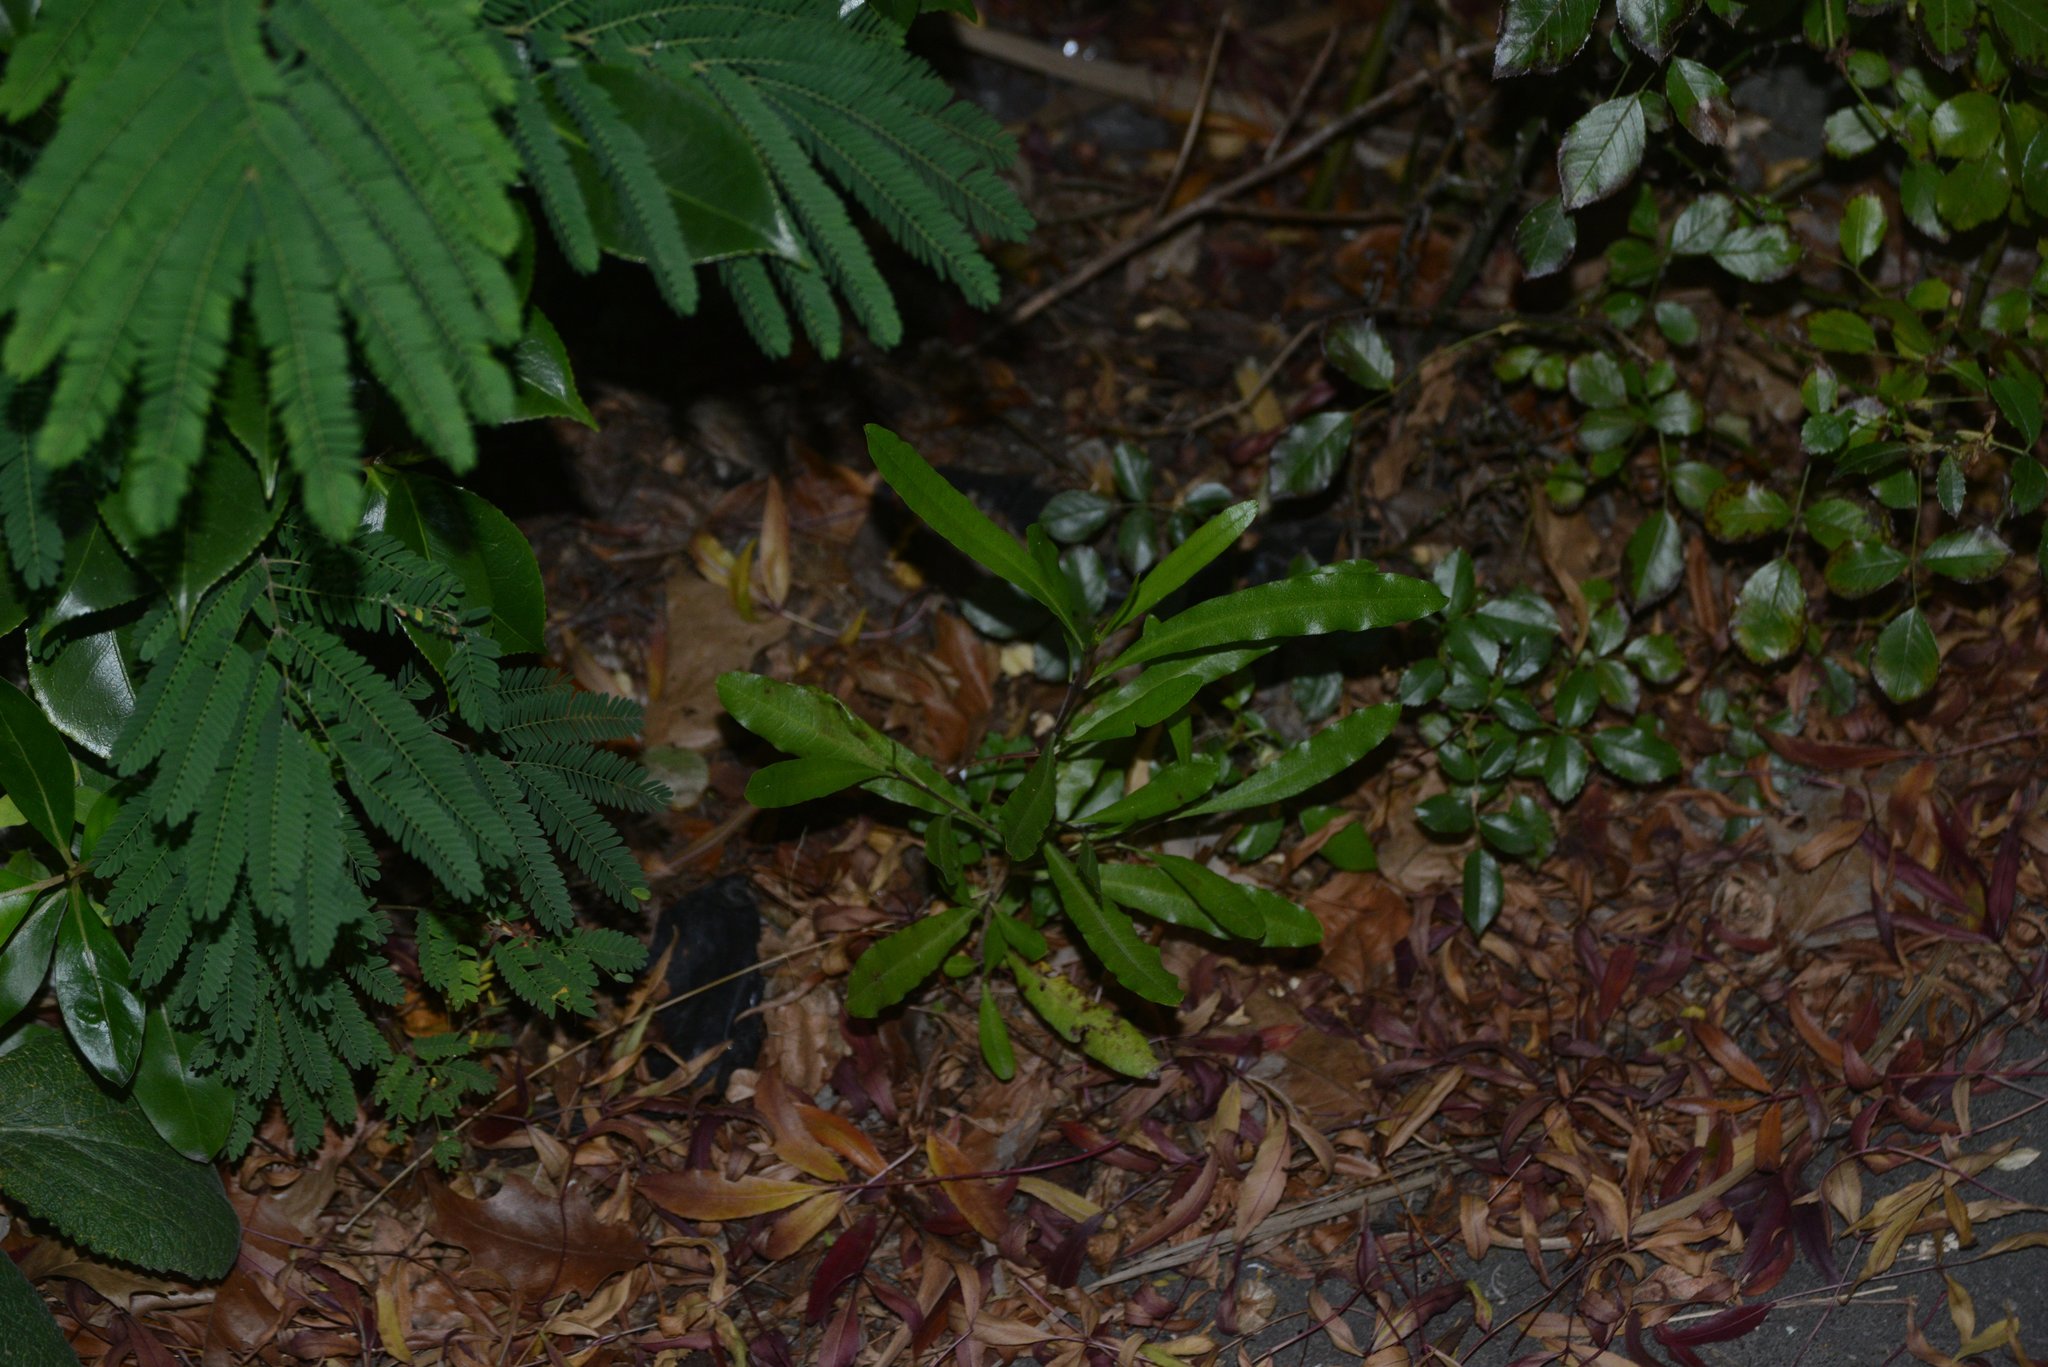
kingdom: Plantae
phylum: Tracheophyta
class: Magnoliopsida
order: Sapindales
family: Sapindaceae
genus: Dodonaea
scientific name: Dodonaea viscosa
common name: Hopbush
